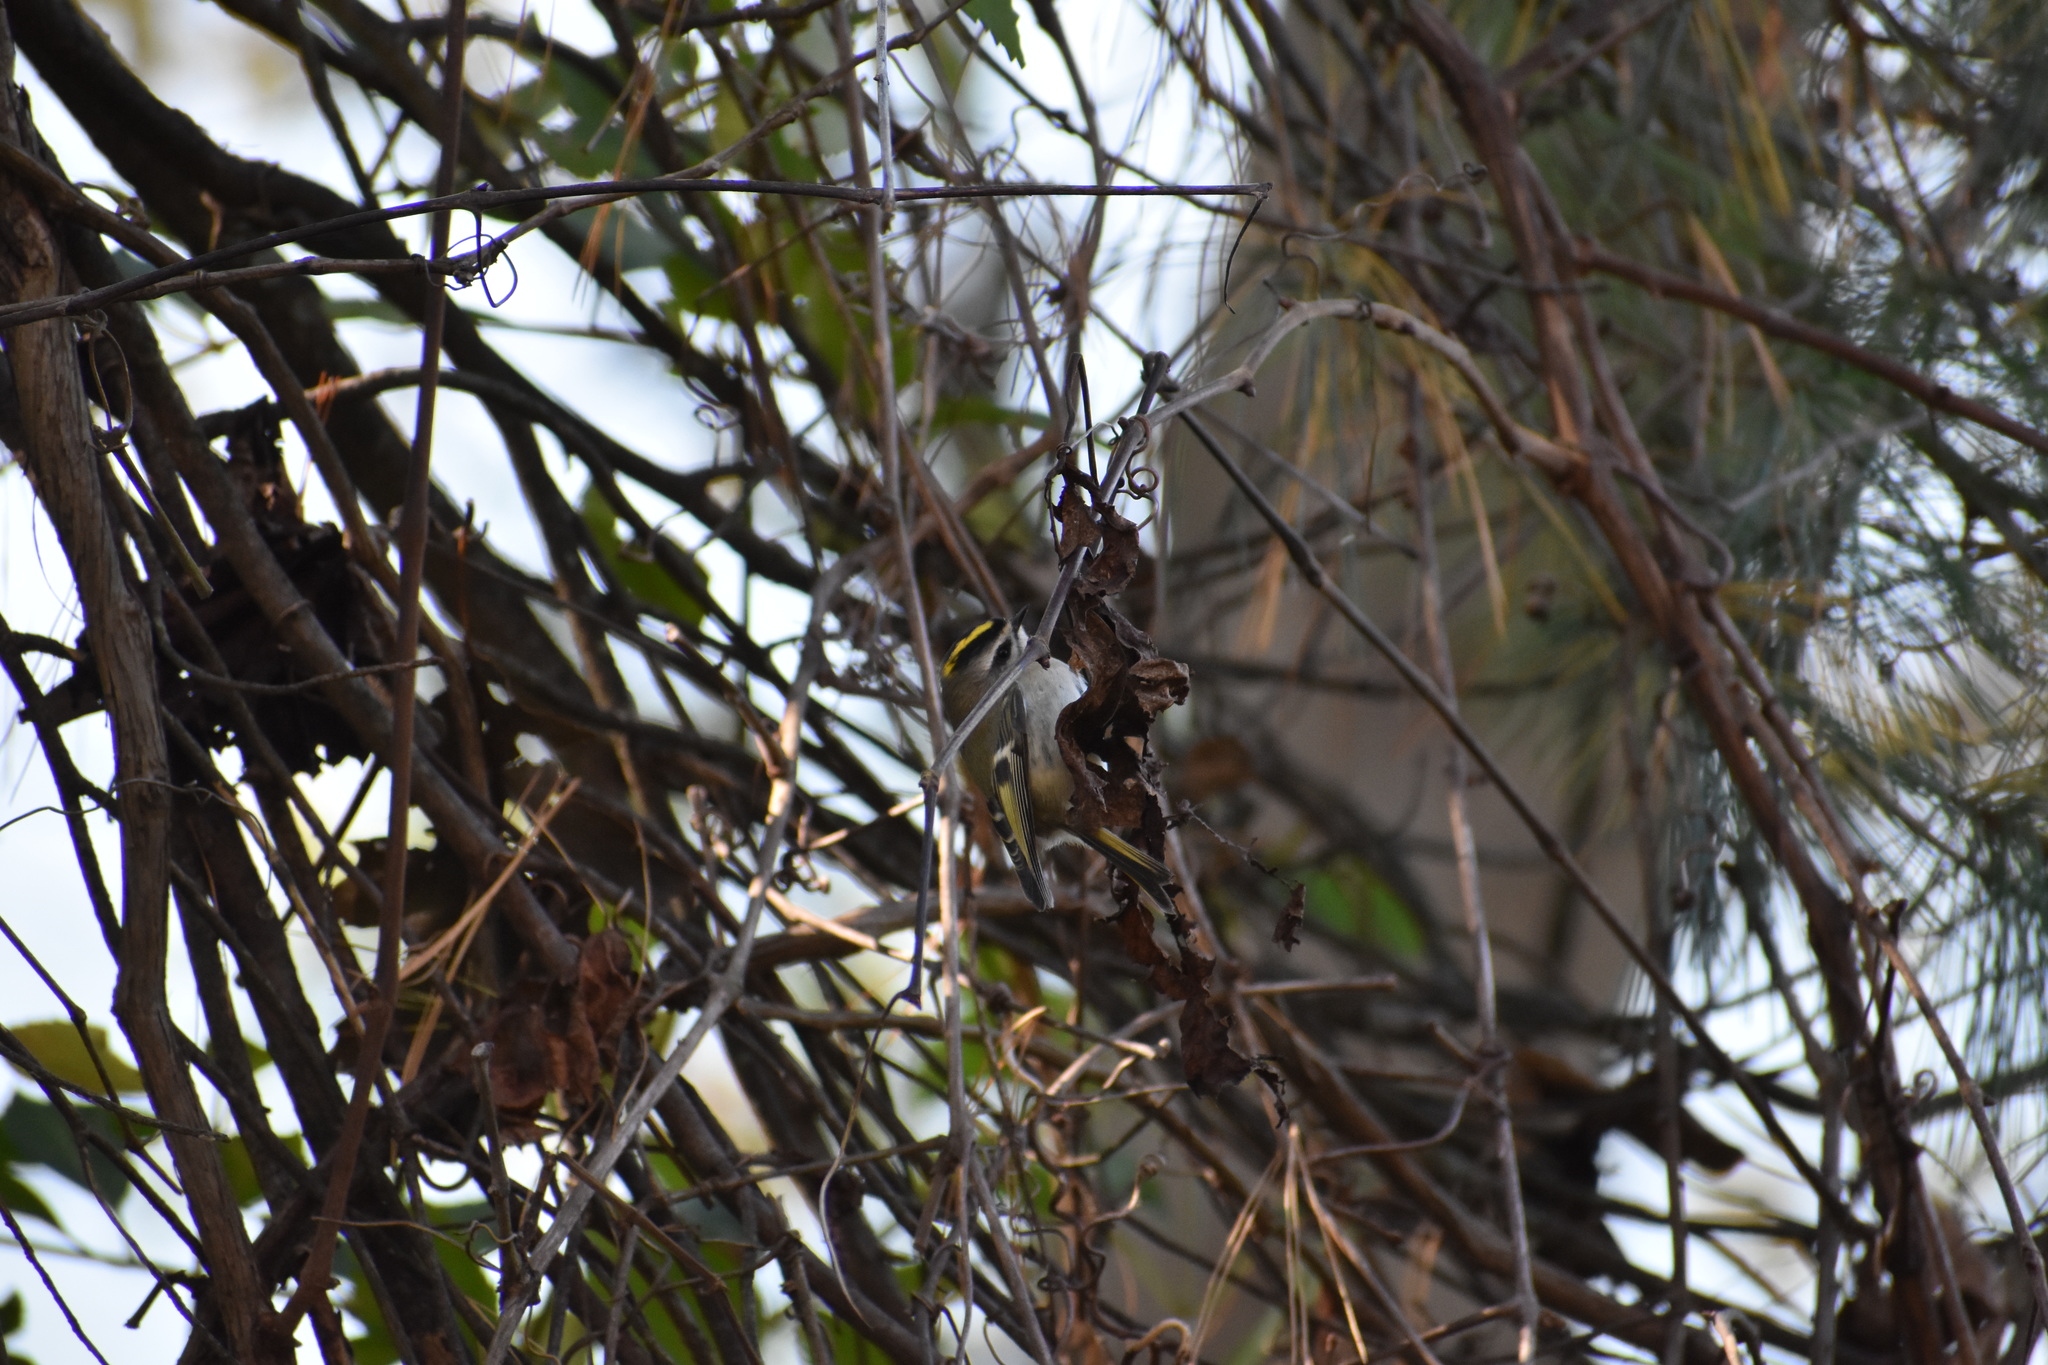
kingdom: Animalia
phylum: Chordata
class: Aves
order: Passeriformes
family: Regulidae
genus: Regulus
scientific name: Regulus satrapa
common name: Golden-crowned kinglet
